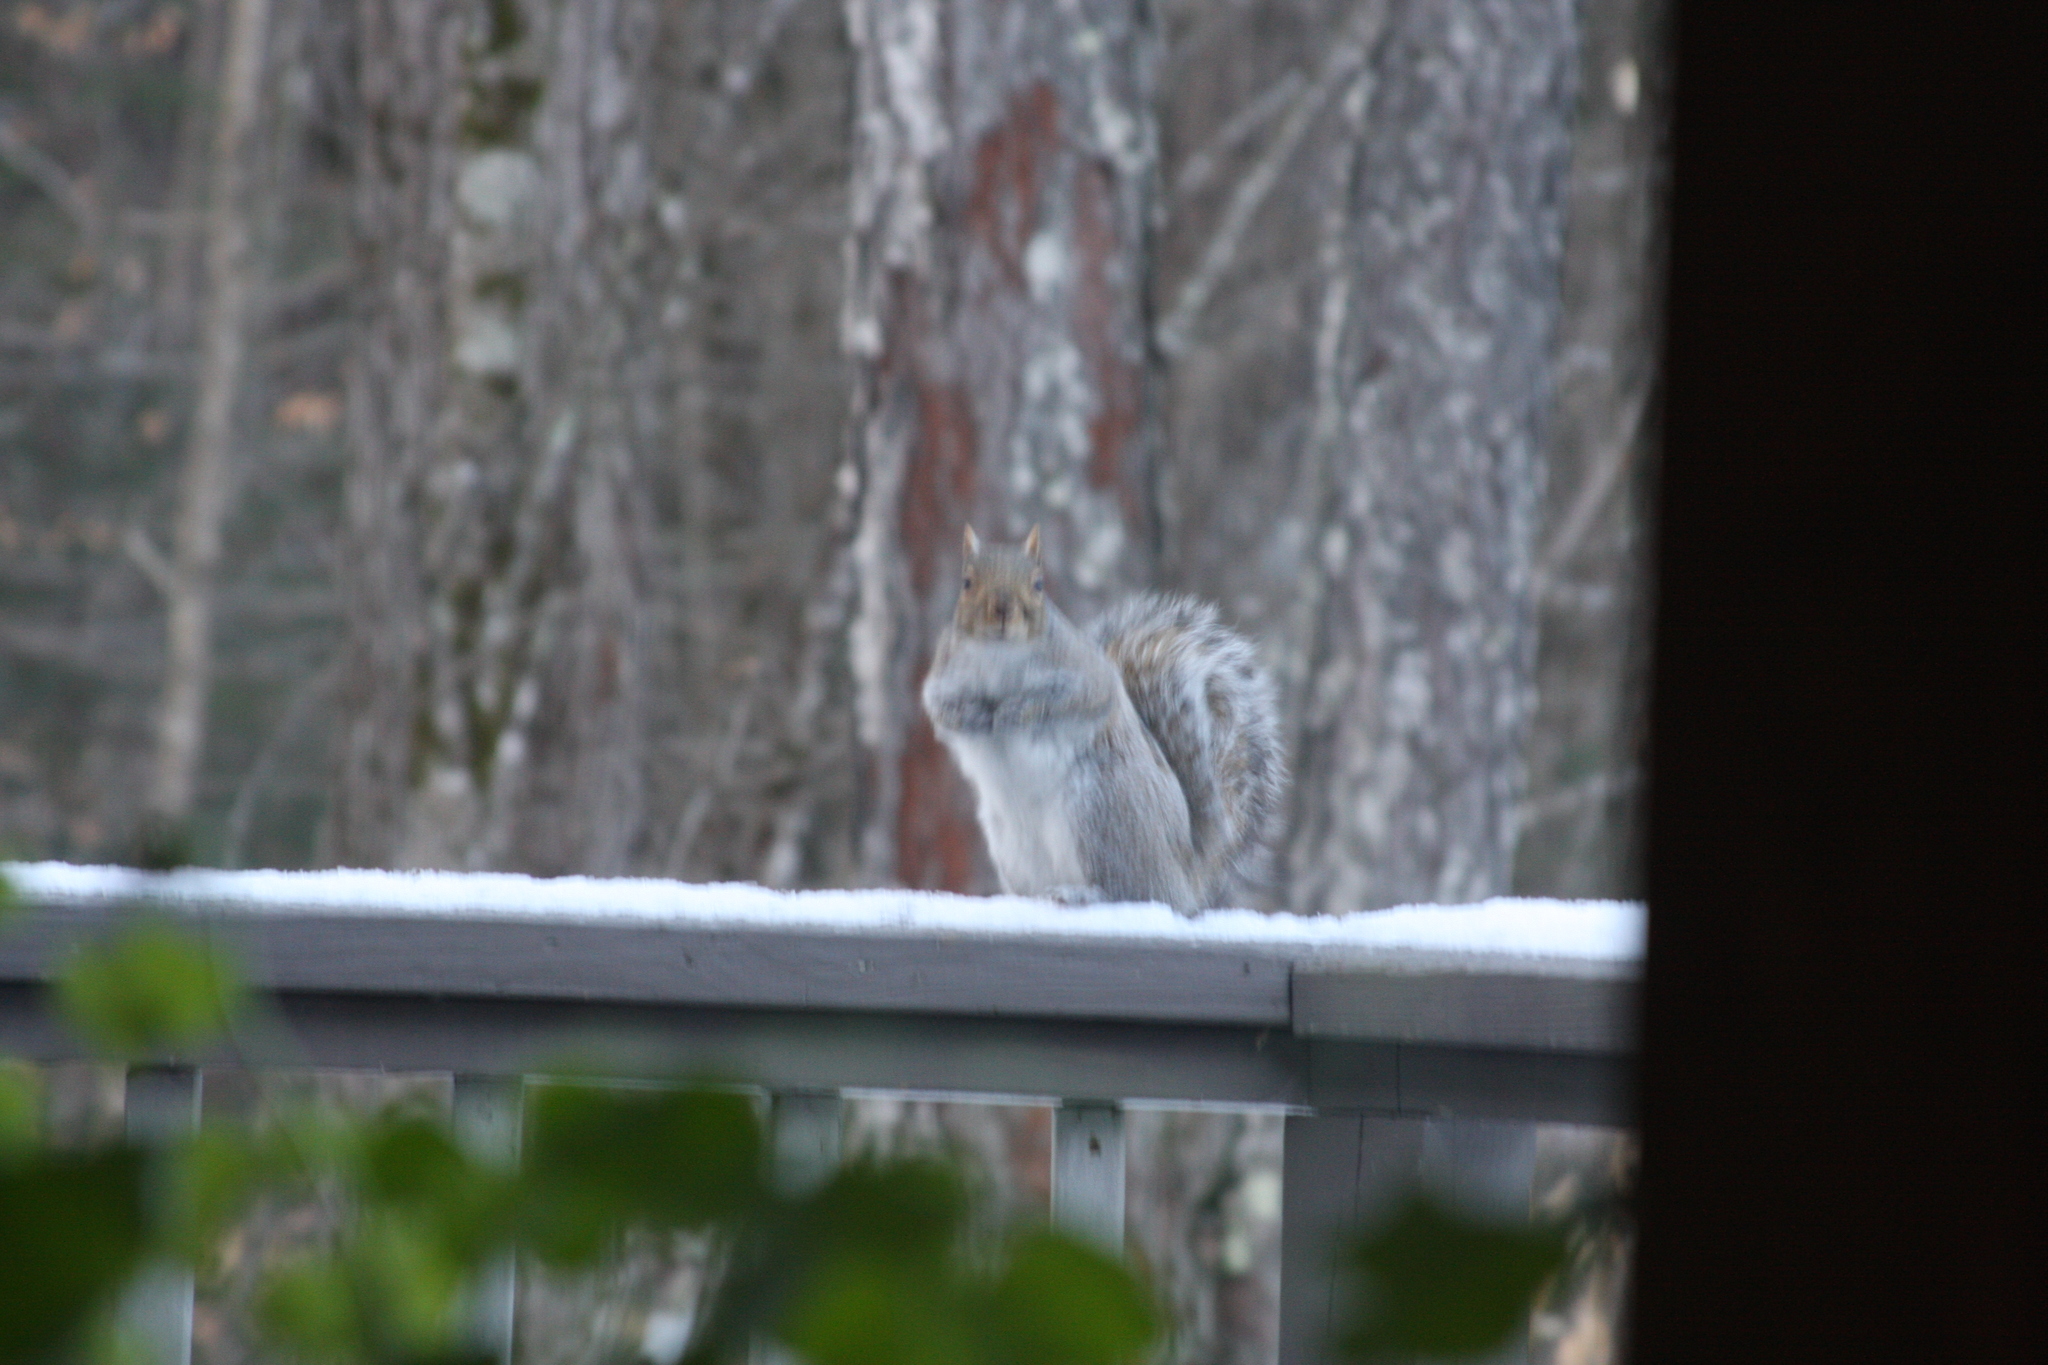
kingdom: Animalia
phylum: Chordata
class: Mammalia
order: Rodentia
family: Sciuridae
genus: Sciurus
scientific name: Sciurus carolinensis
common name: Eastern gray squirrel
